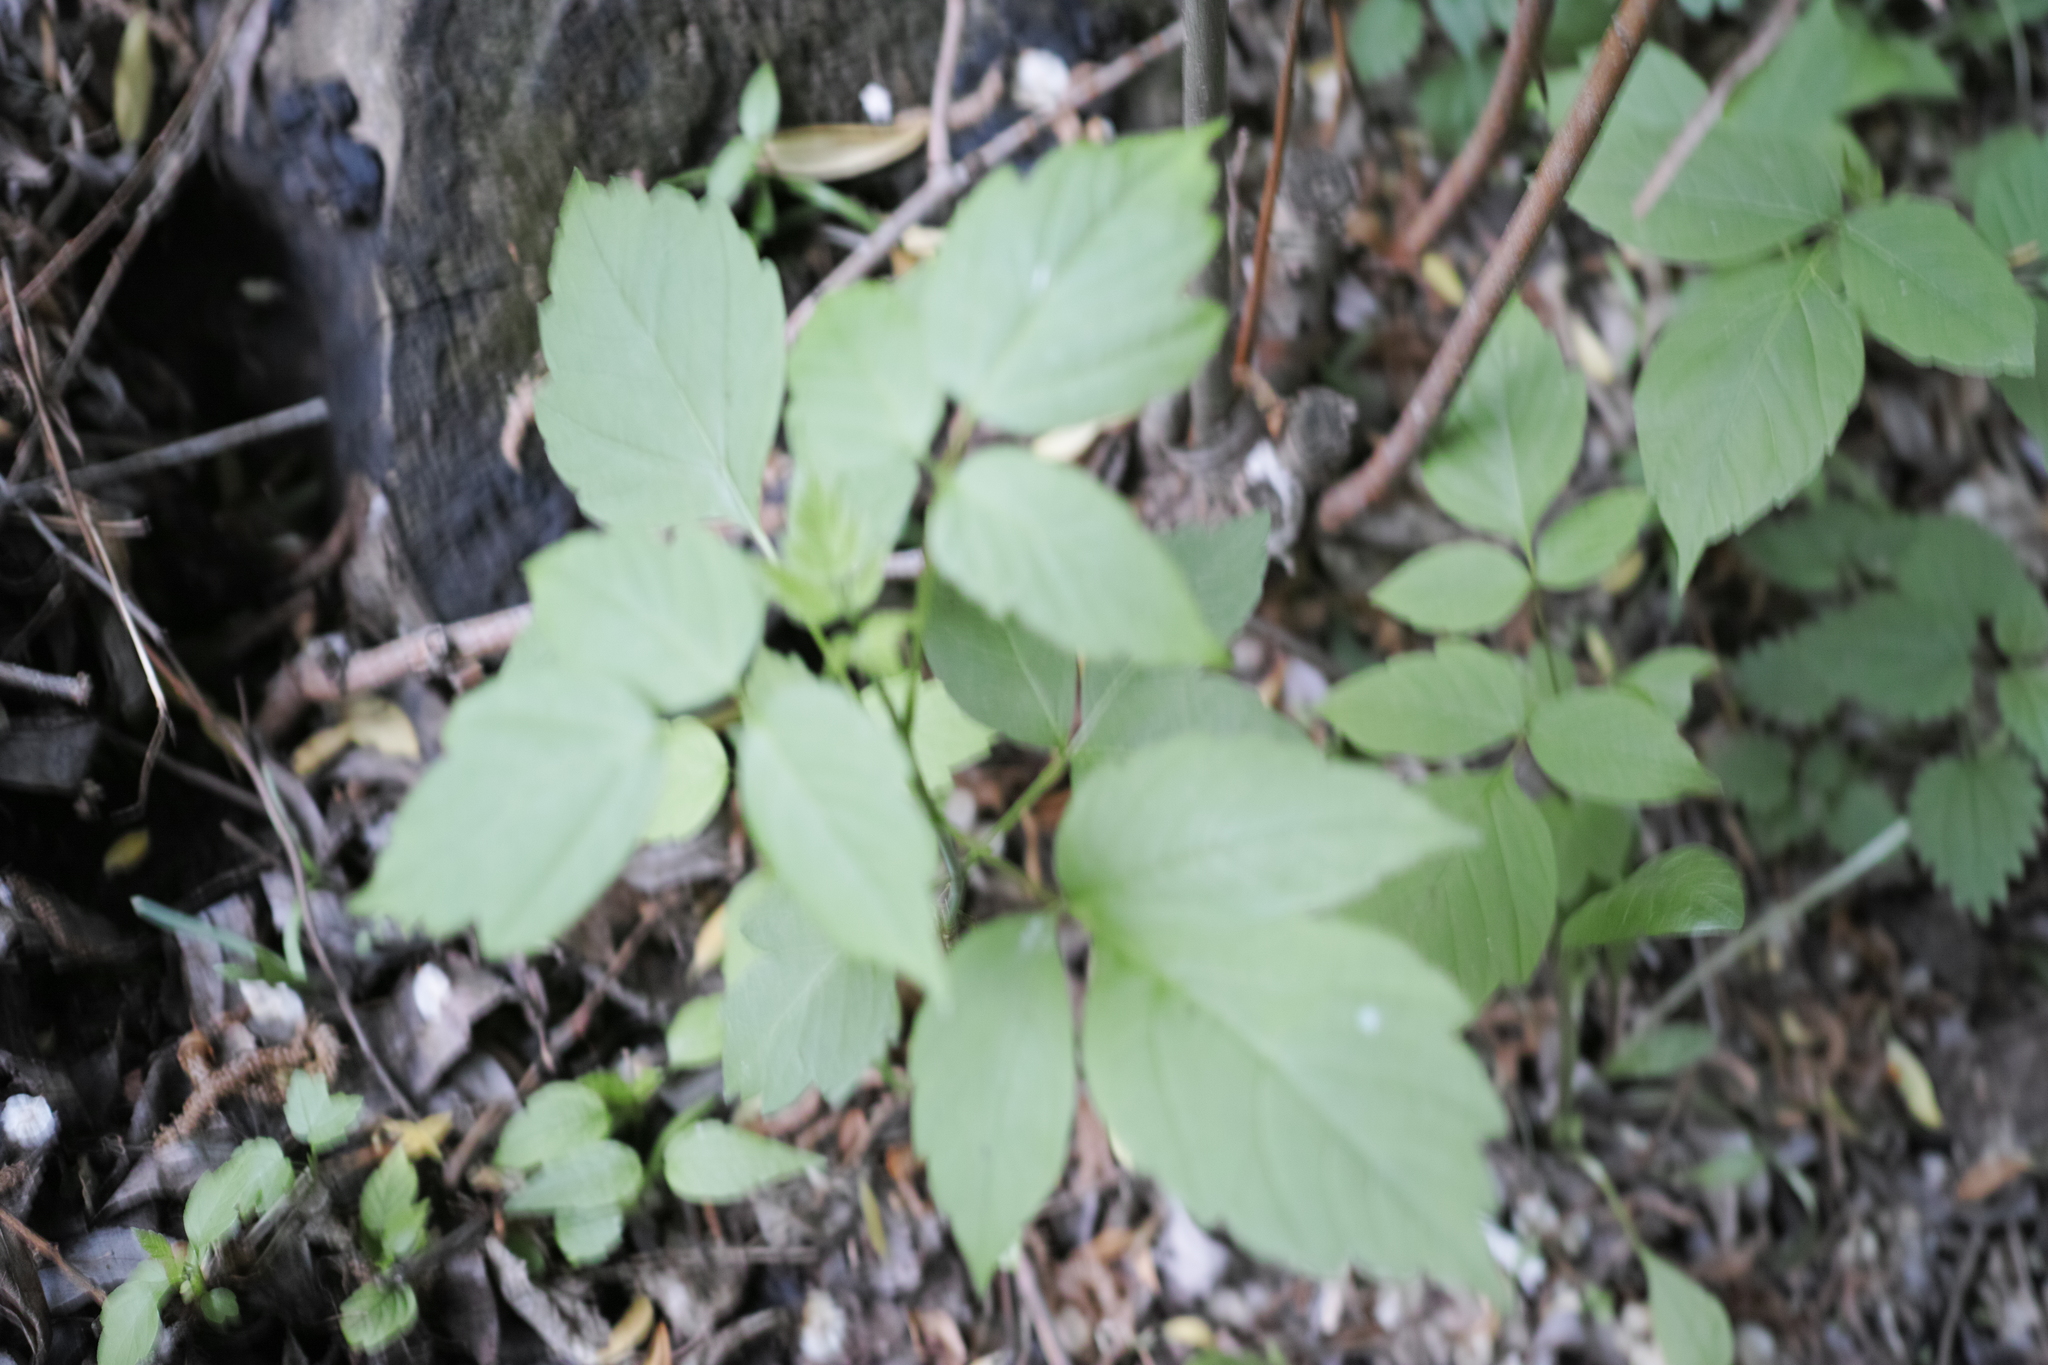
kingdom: Plantae
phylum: Tracheophyta
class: Magnoliopsida
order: Sapindales
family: Sapindaceae
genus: Acer
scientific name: Acer negundo
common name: Ashleaf maple
